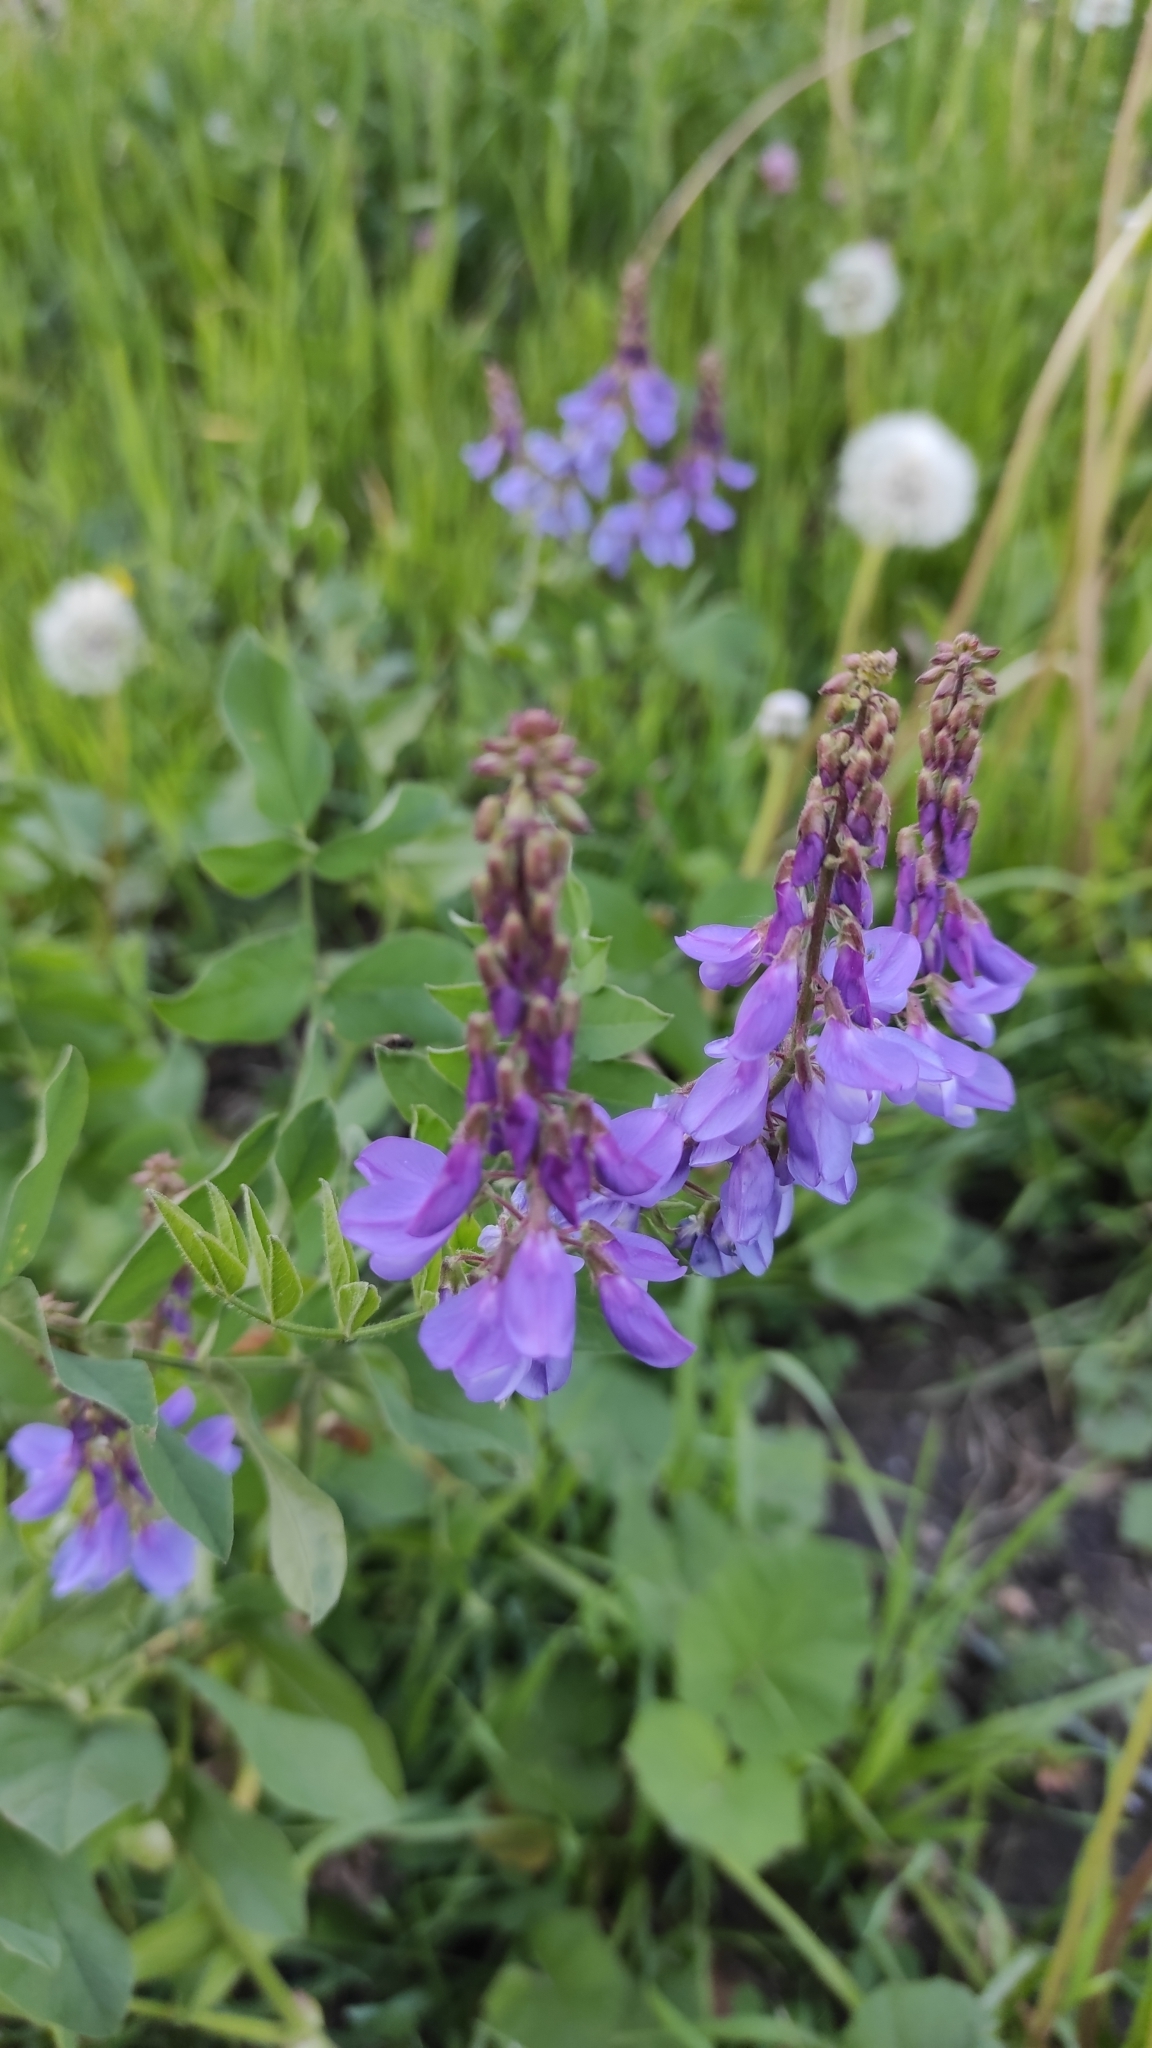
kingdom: Plantae
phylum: Tracheophyta
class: Magnoliopsida
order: Fabales
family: Fabaceae
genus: Galega
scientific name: Galega orientalis
